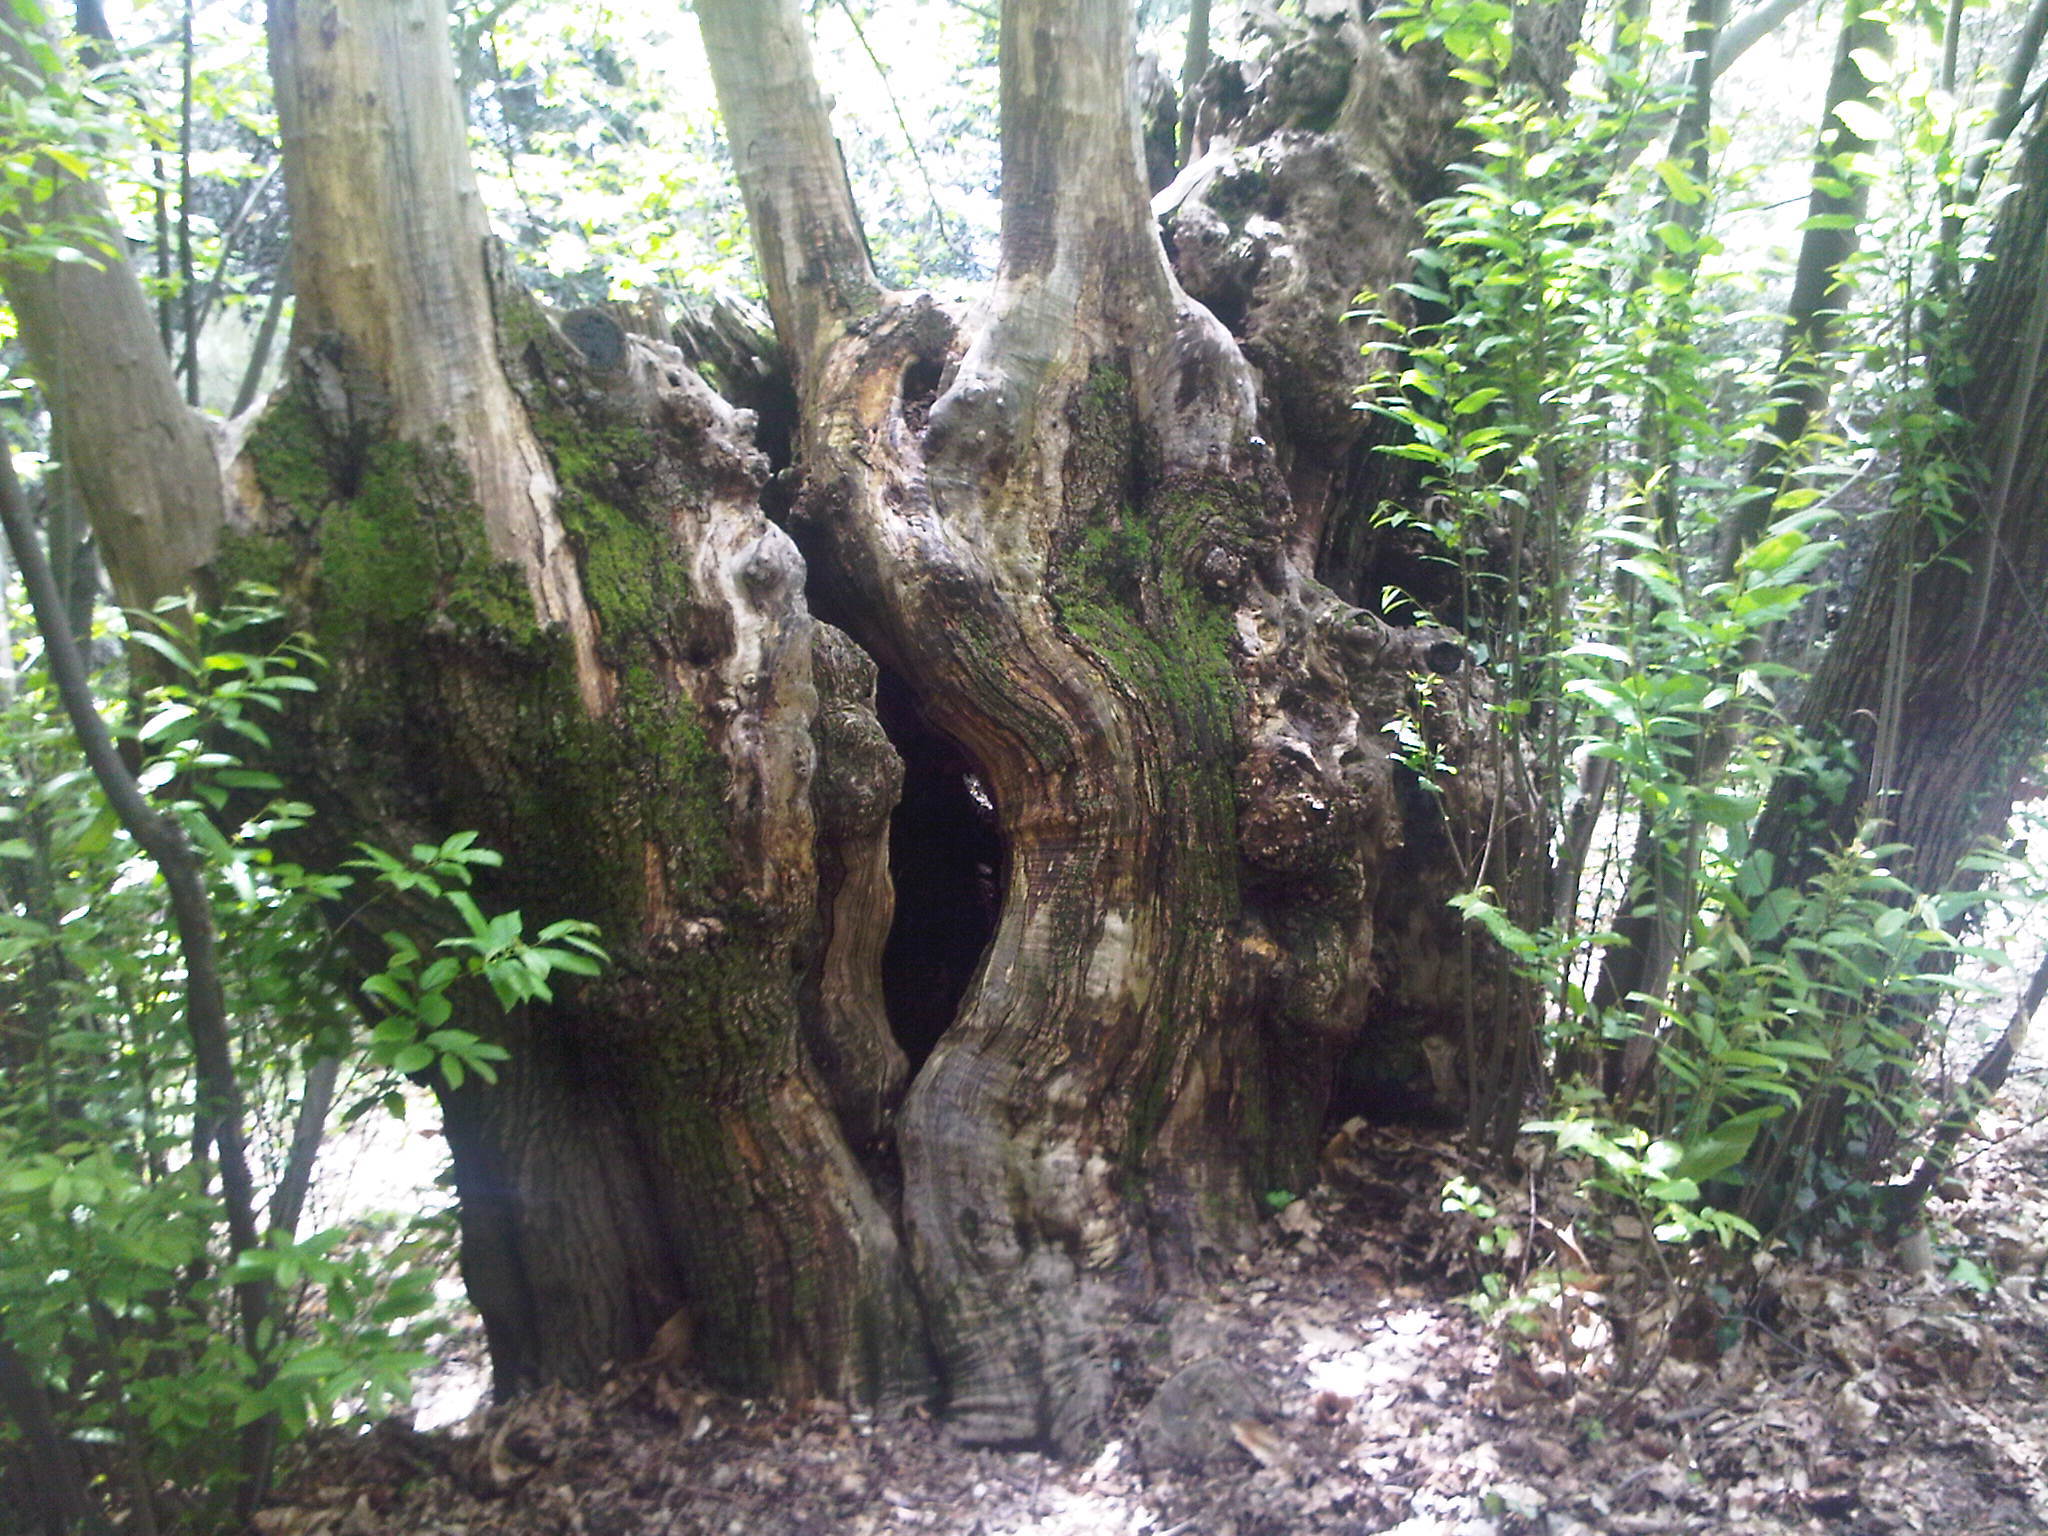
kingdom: Plantae
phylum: Tracheophyta
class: Magnoliopsida
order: Fagales
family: Fagaceae
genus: Castanea
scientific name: Castanea sativa
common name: Sweet chestnut
